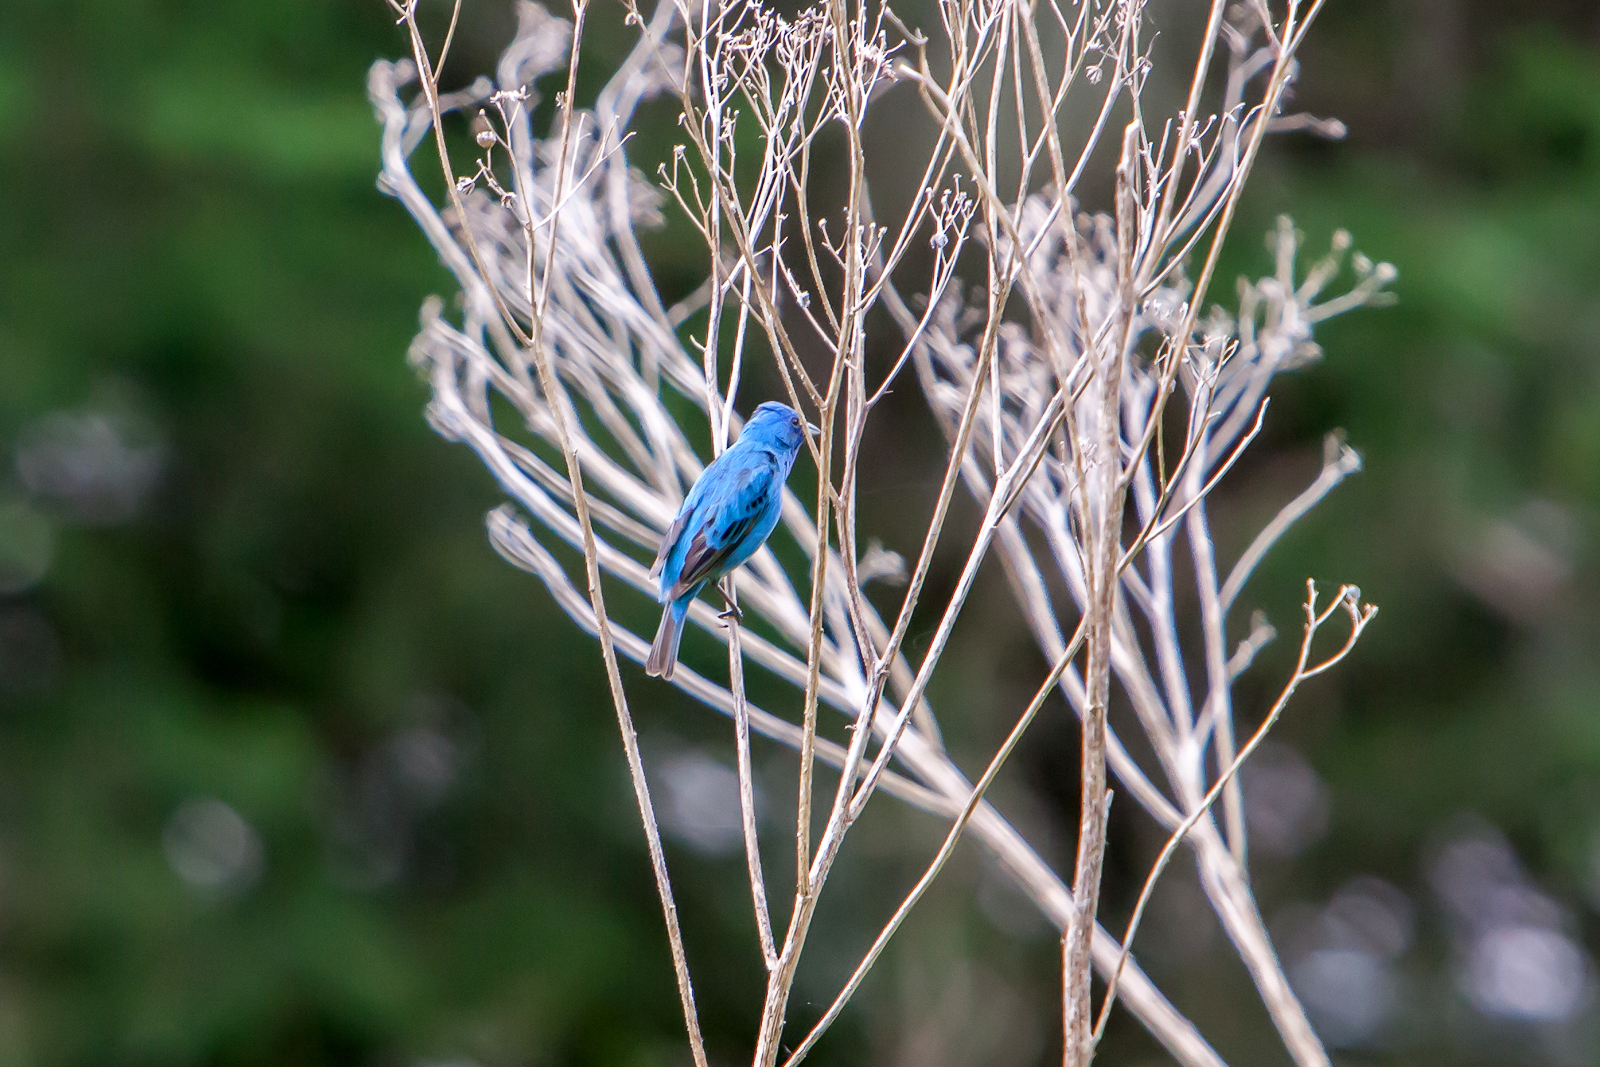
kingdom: Animalia
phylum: Chordata
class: Aves
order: Passeriformes
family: Cardinalidae
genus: Passerina
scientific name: Passerina cyanea
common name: Indigo bunting
